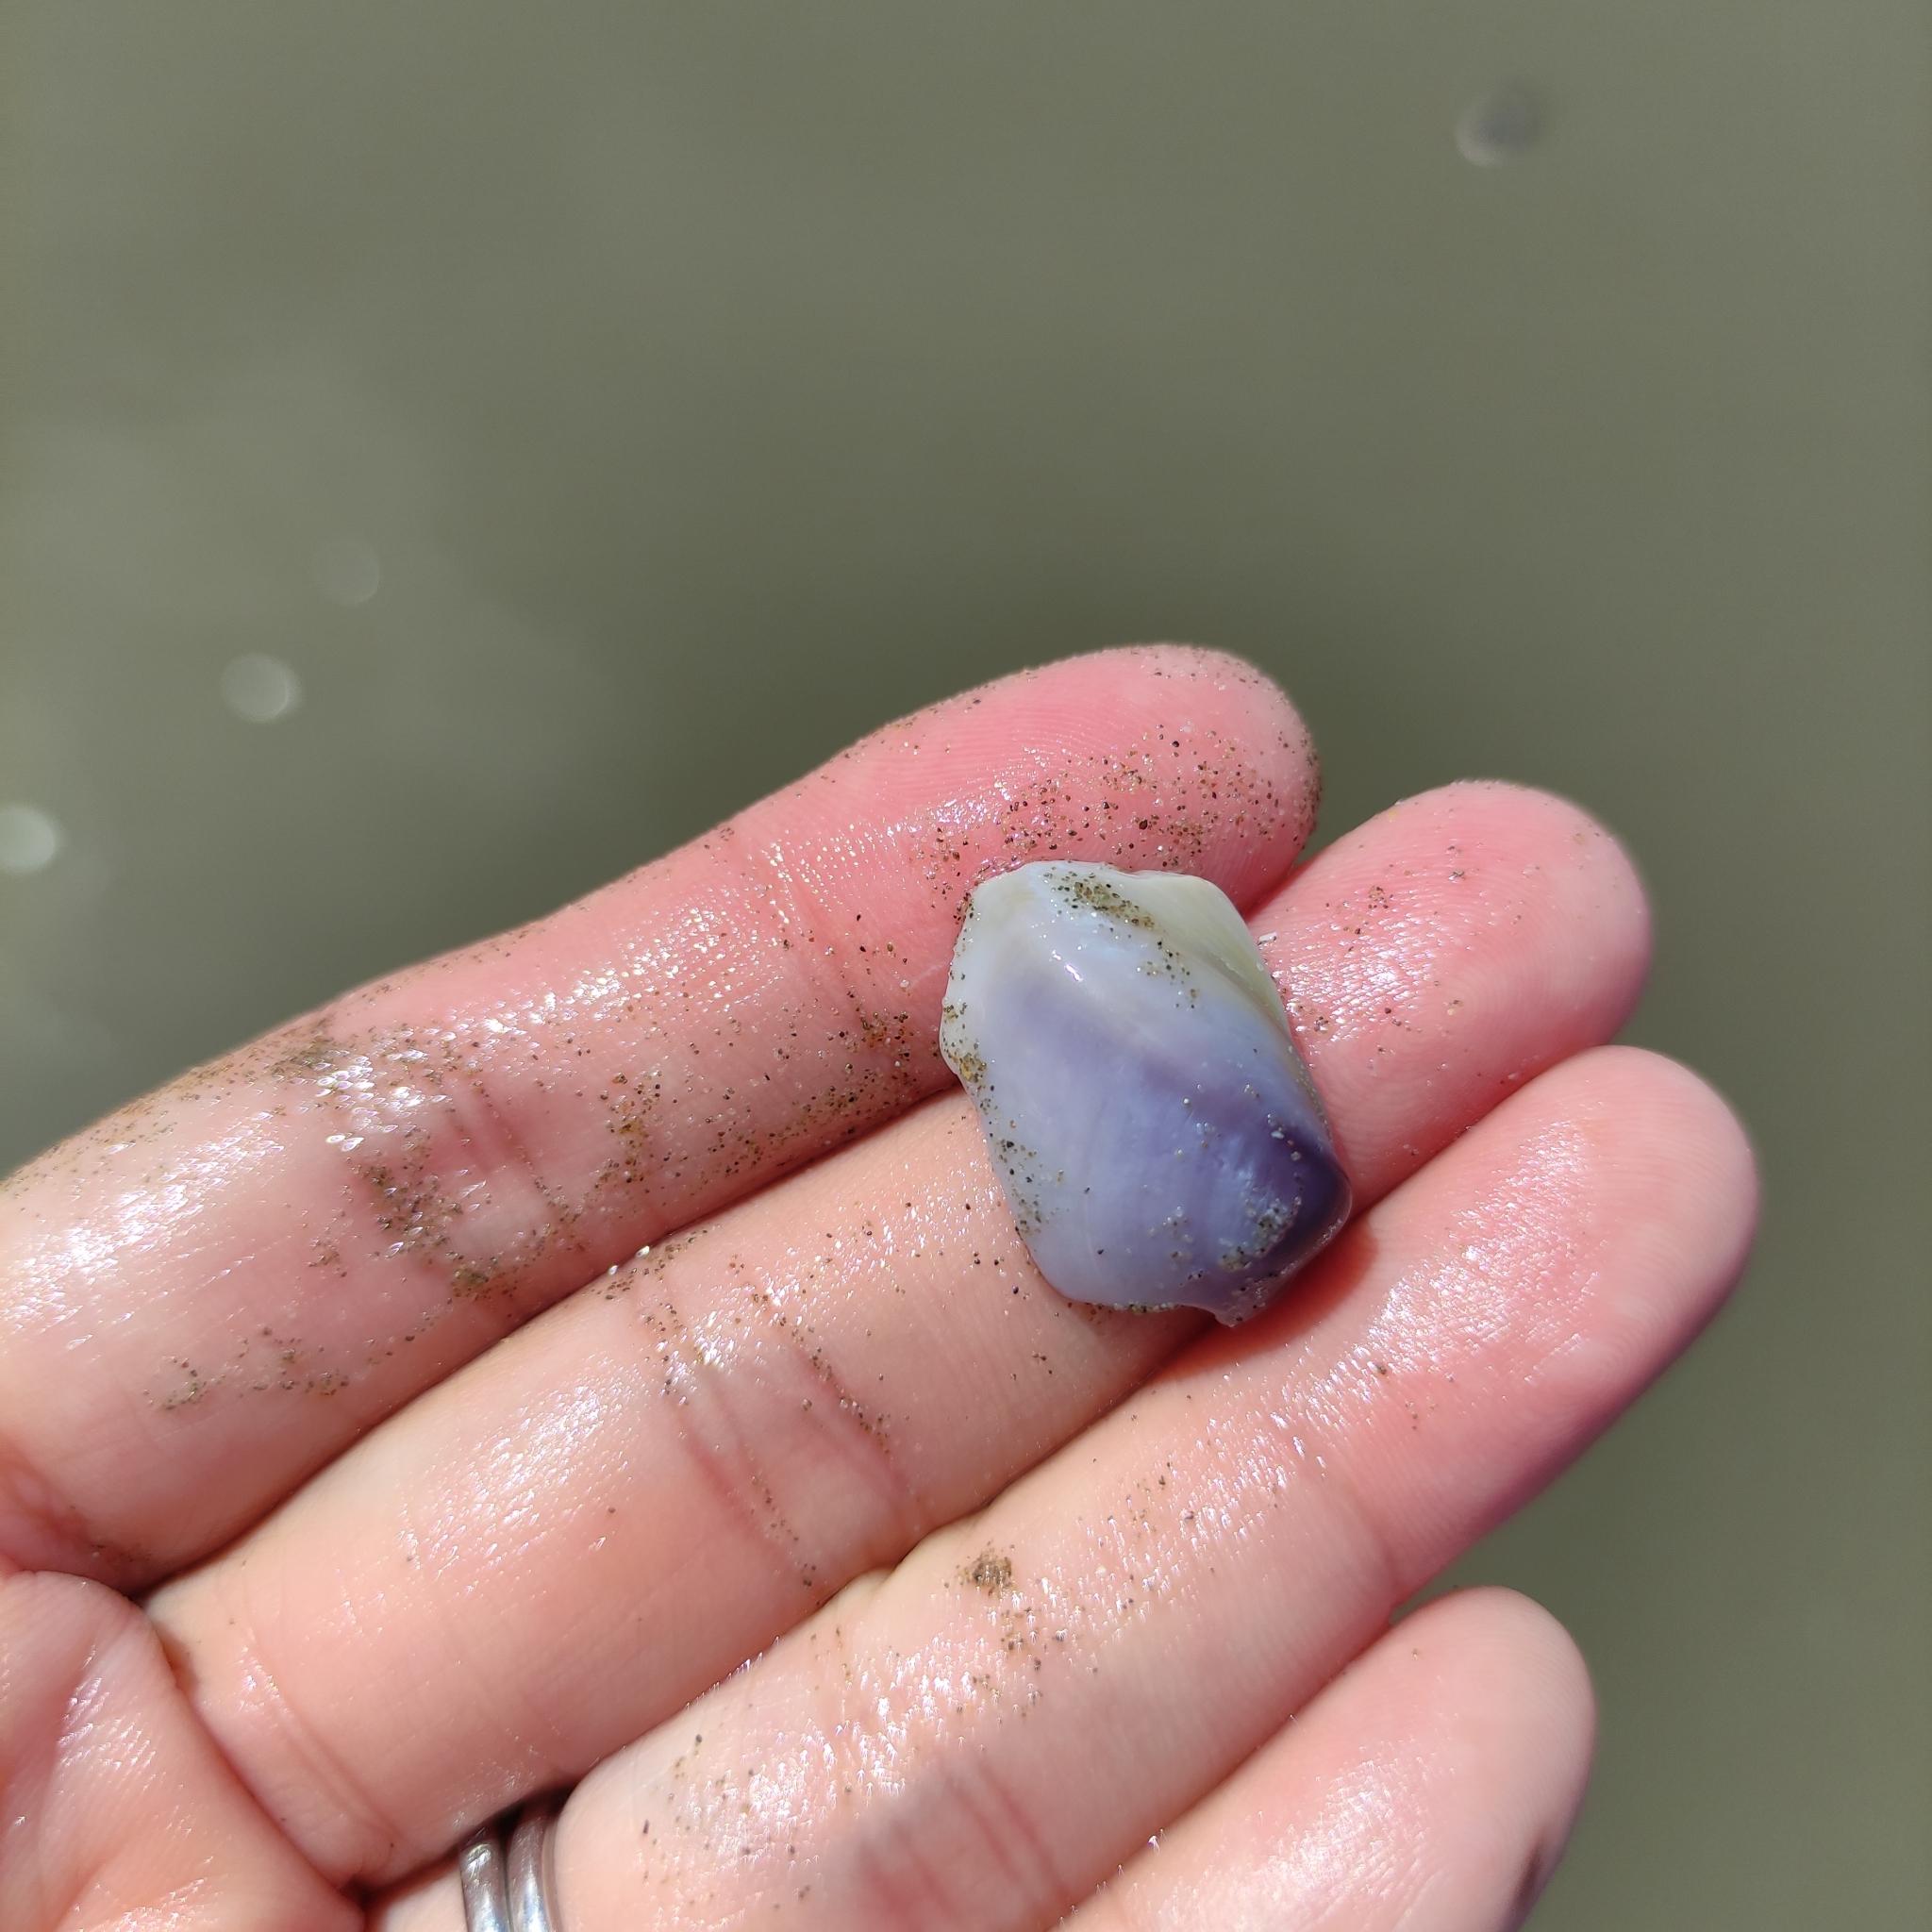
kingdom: Animalia
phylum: Mollusca
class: Bivalvia
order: Venerida
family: Mactridae
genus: Crassula
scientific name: Crassula aequilatera
